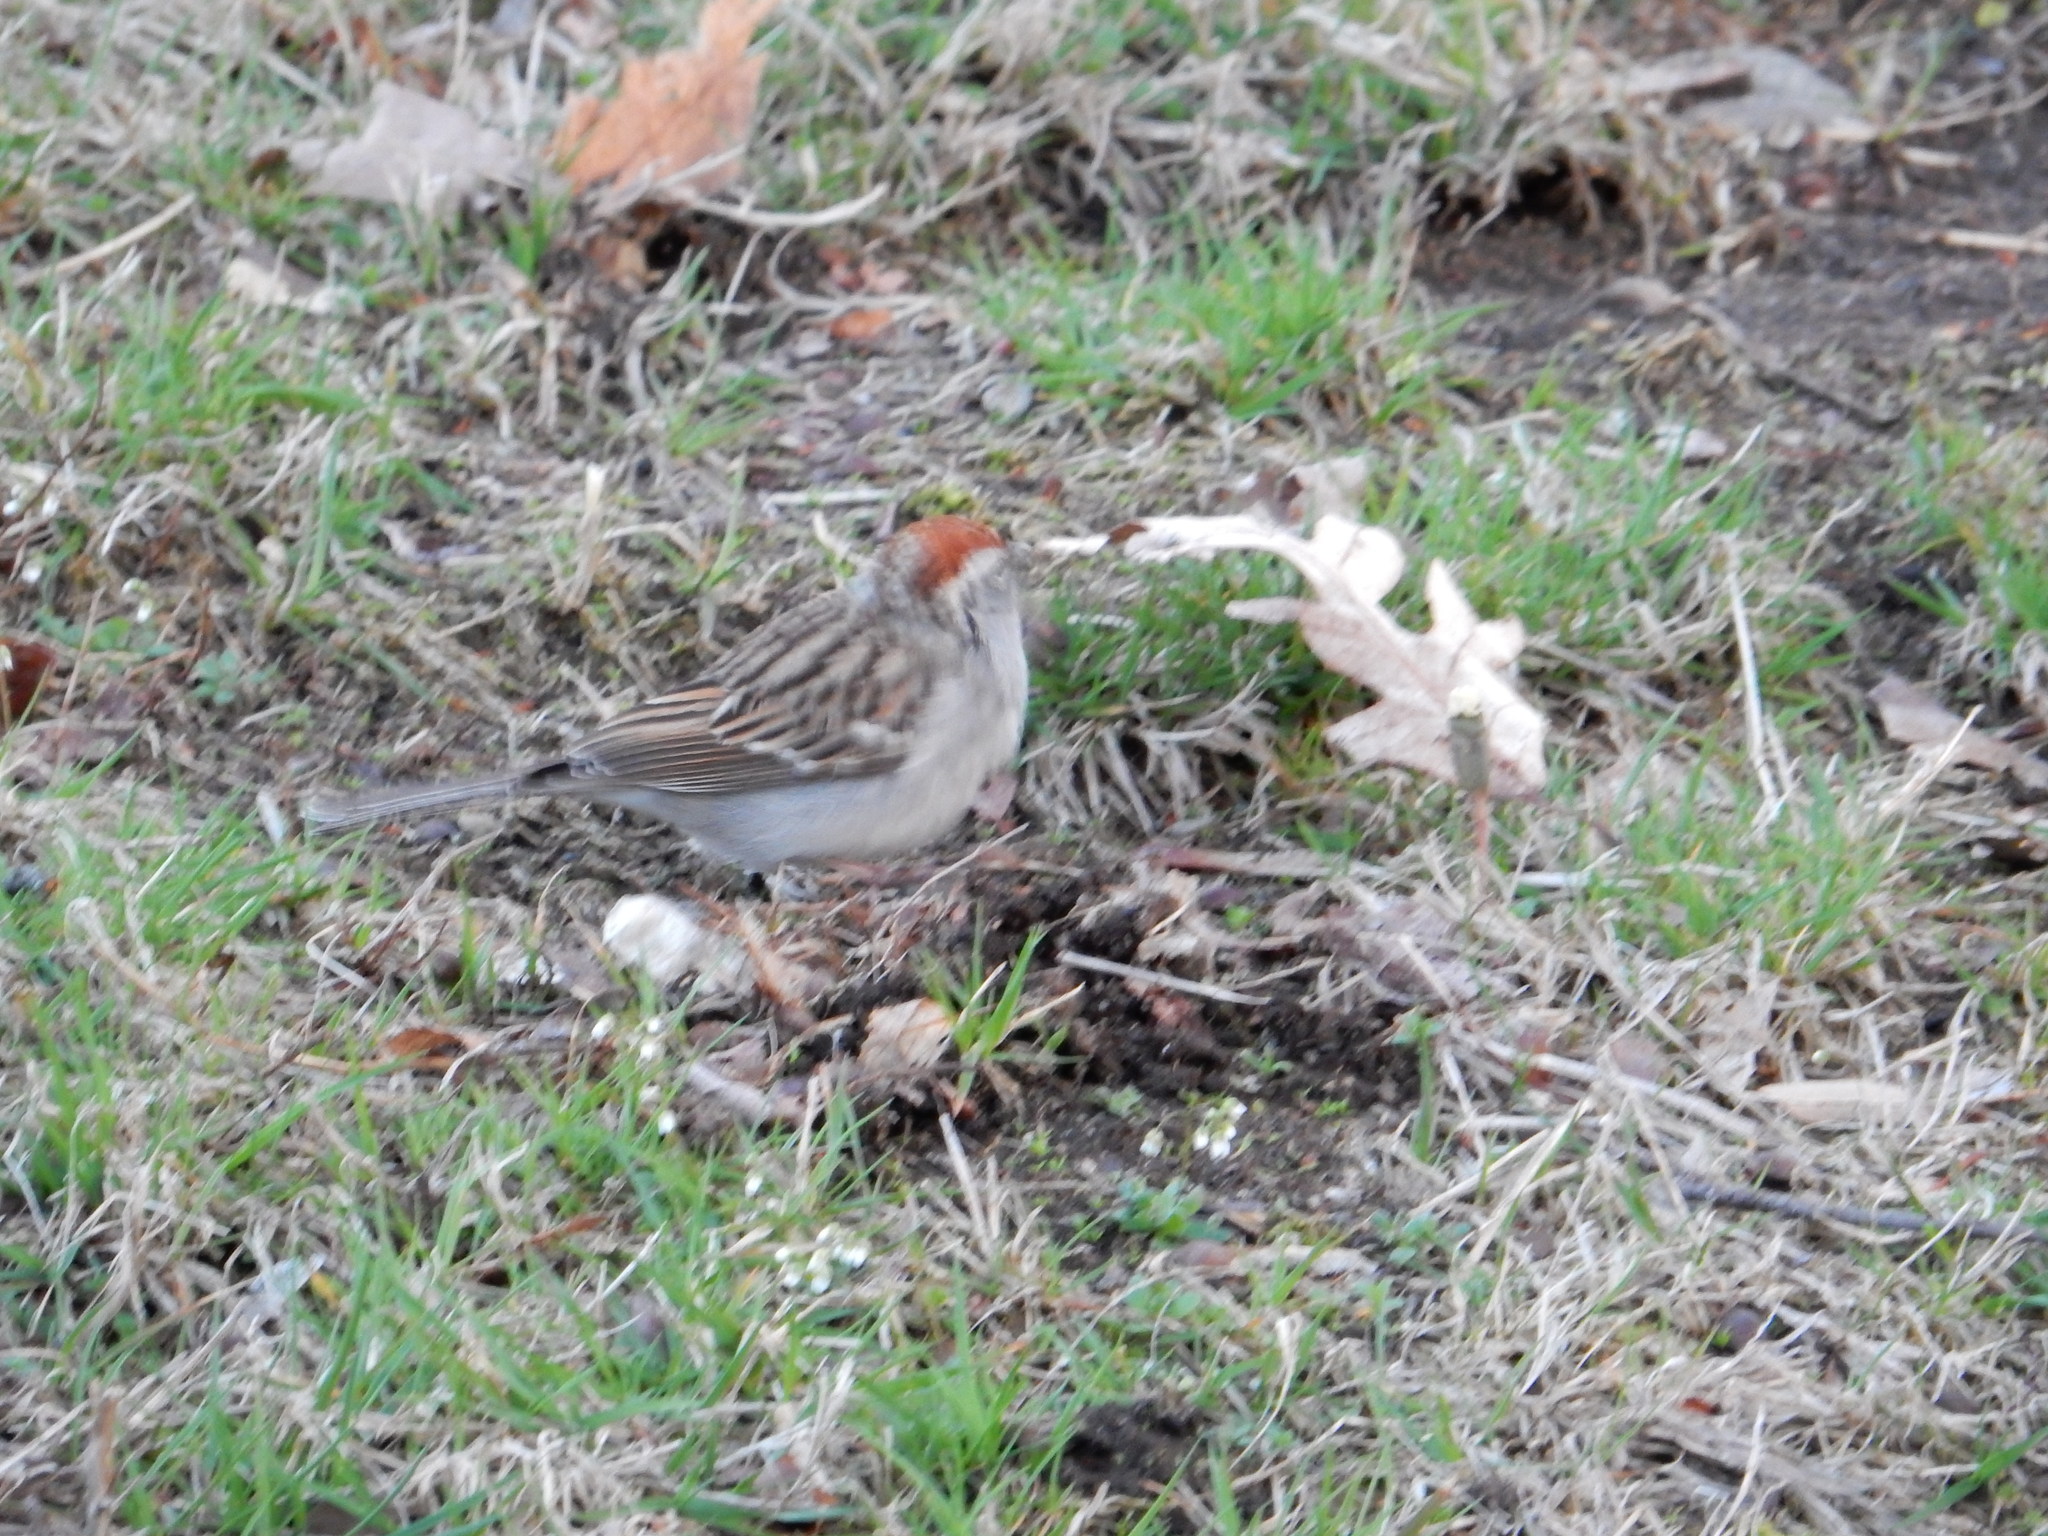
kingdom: Animalia
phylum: Chordata
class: Aves
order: Passeriformes
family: Passerellidae
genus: Spizella
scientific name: Spizella passerina
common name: Chipping sparrow
